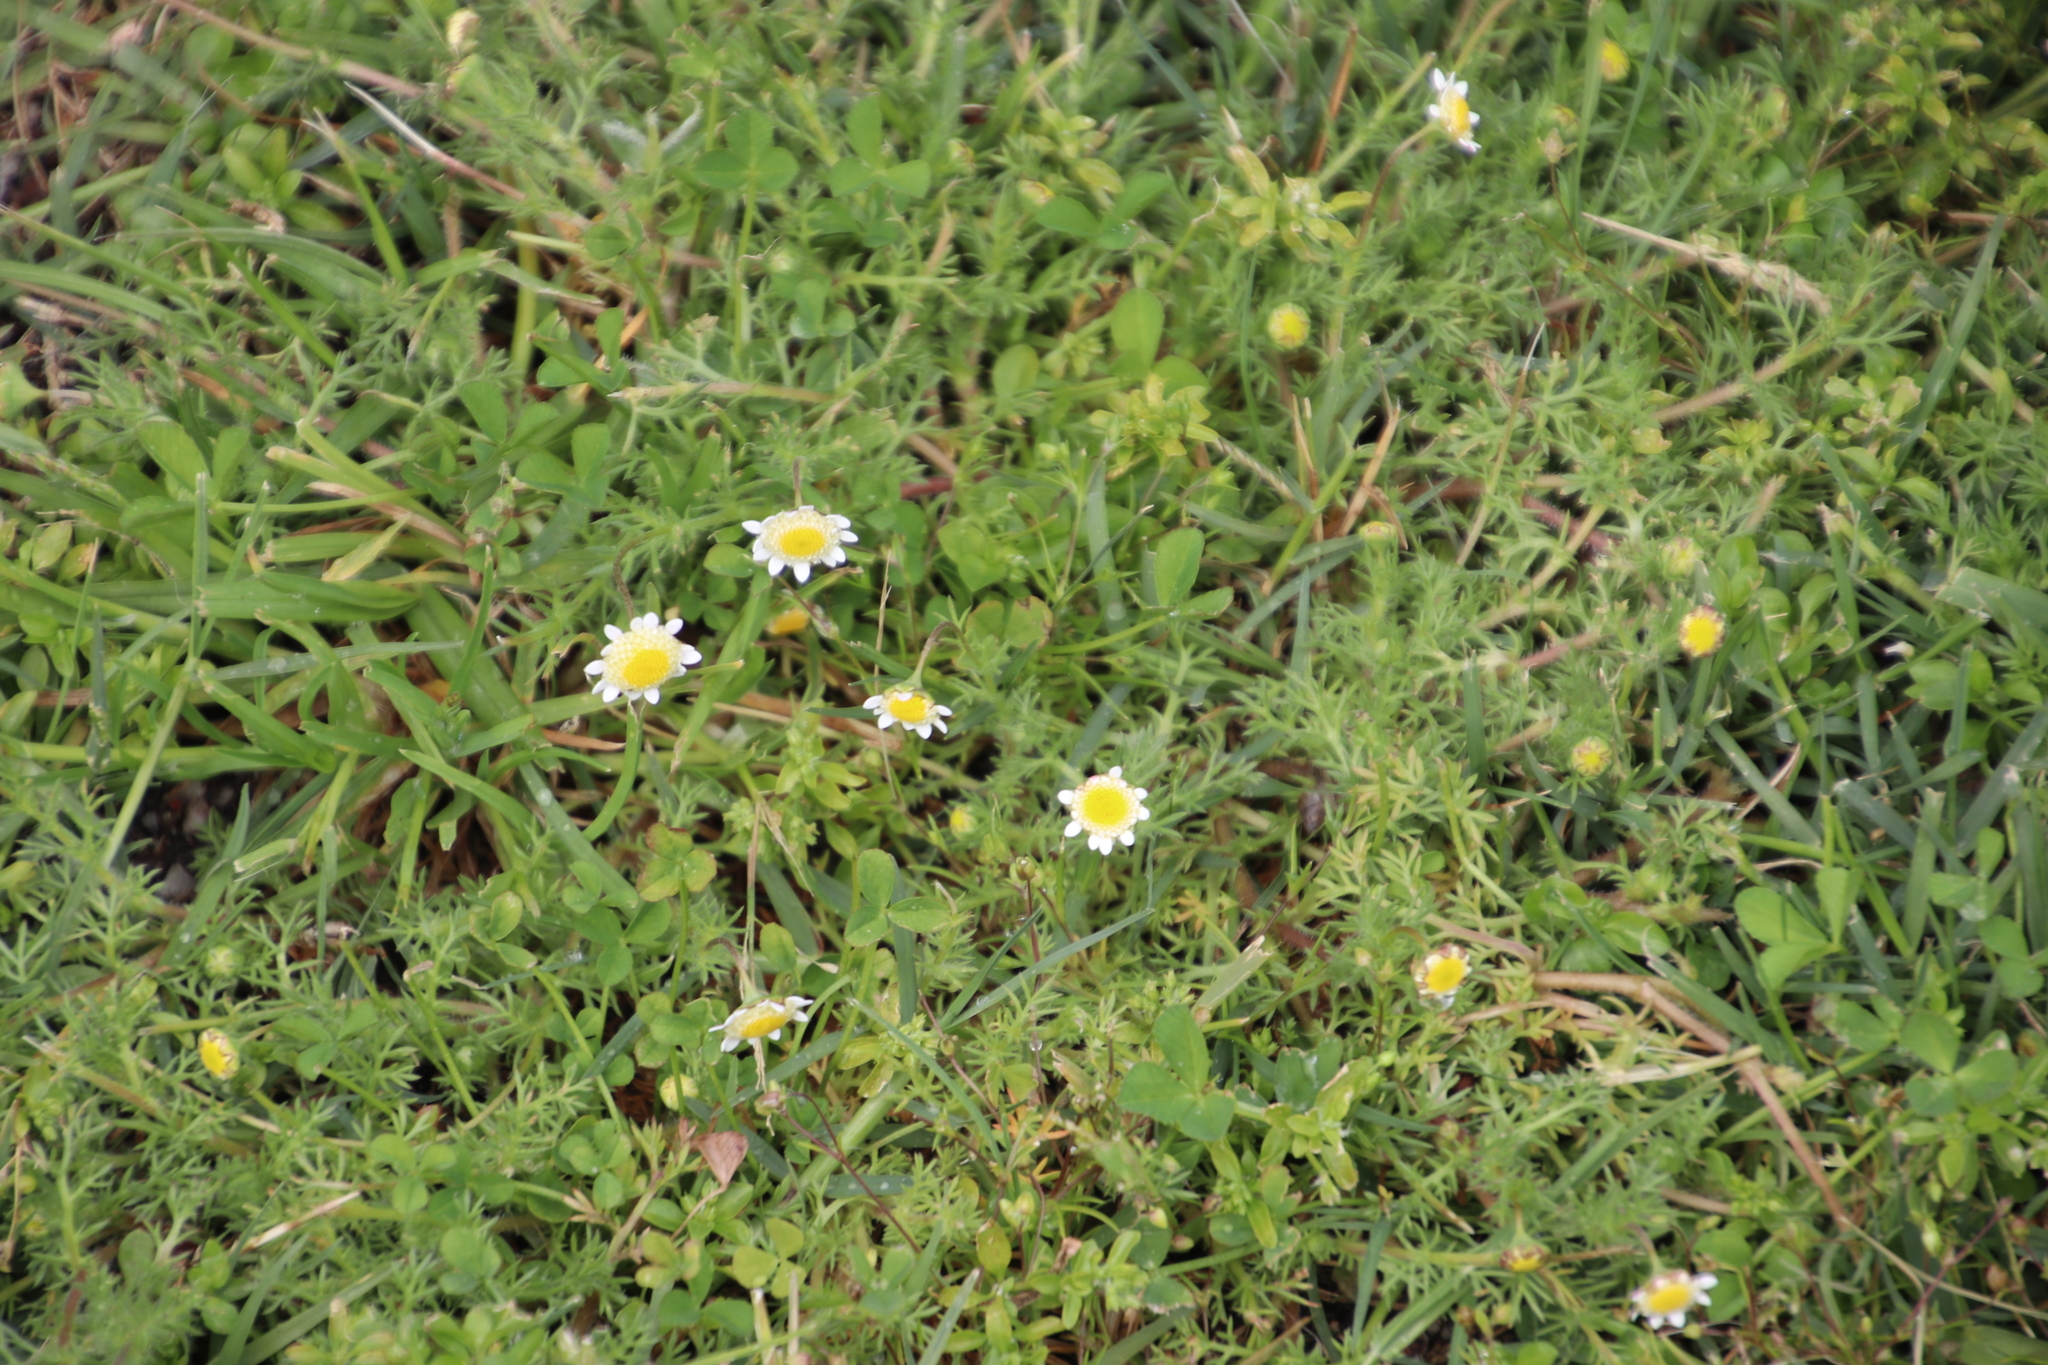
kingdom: Plantae
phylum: Tracheophyta
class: Magnoliopsida
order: Asterales
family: Asteraceae
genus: Cotula
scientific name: Cotula turbinata
